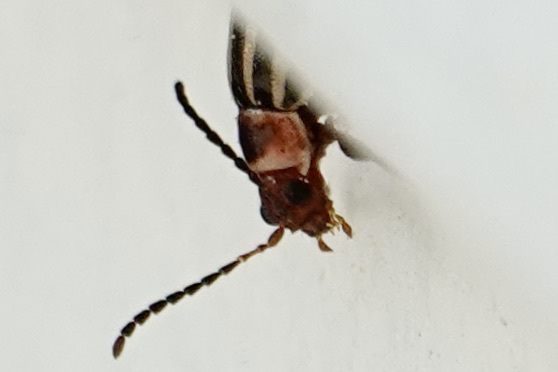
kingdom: Animalia
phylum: Arthropoda
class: Insecta
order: Coleoptera
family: Chrysomelidae
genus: Kuschelina
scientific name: Kuschelina petaurista
